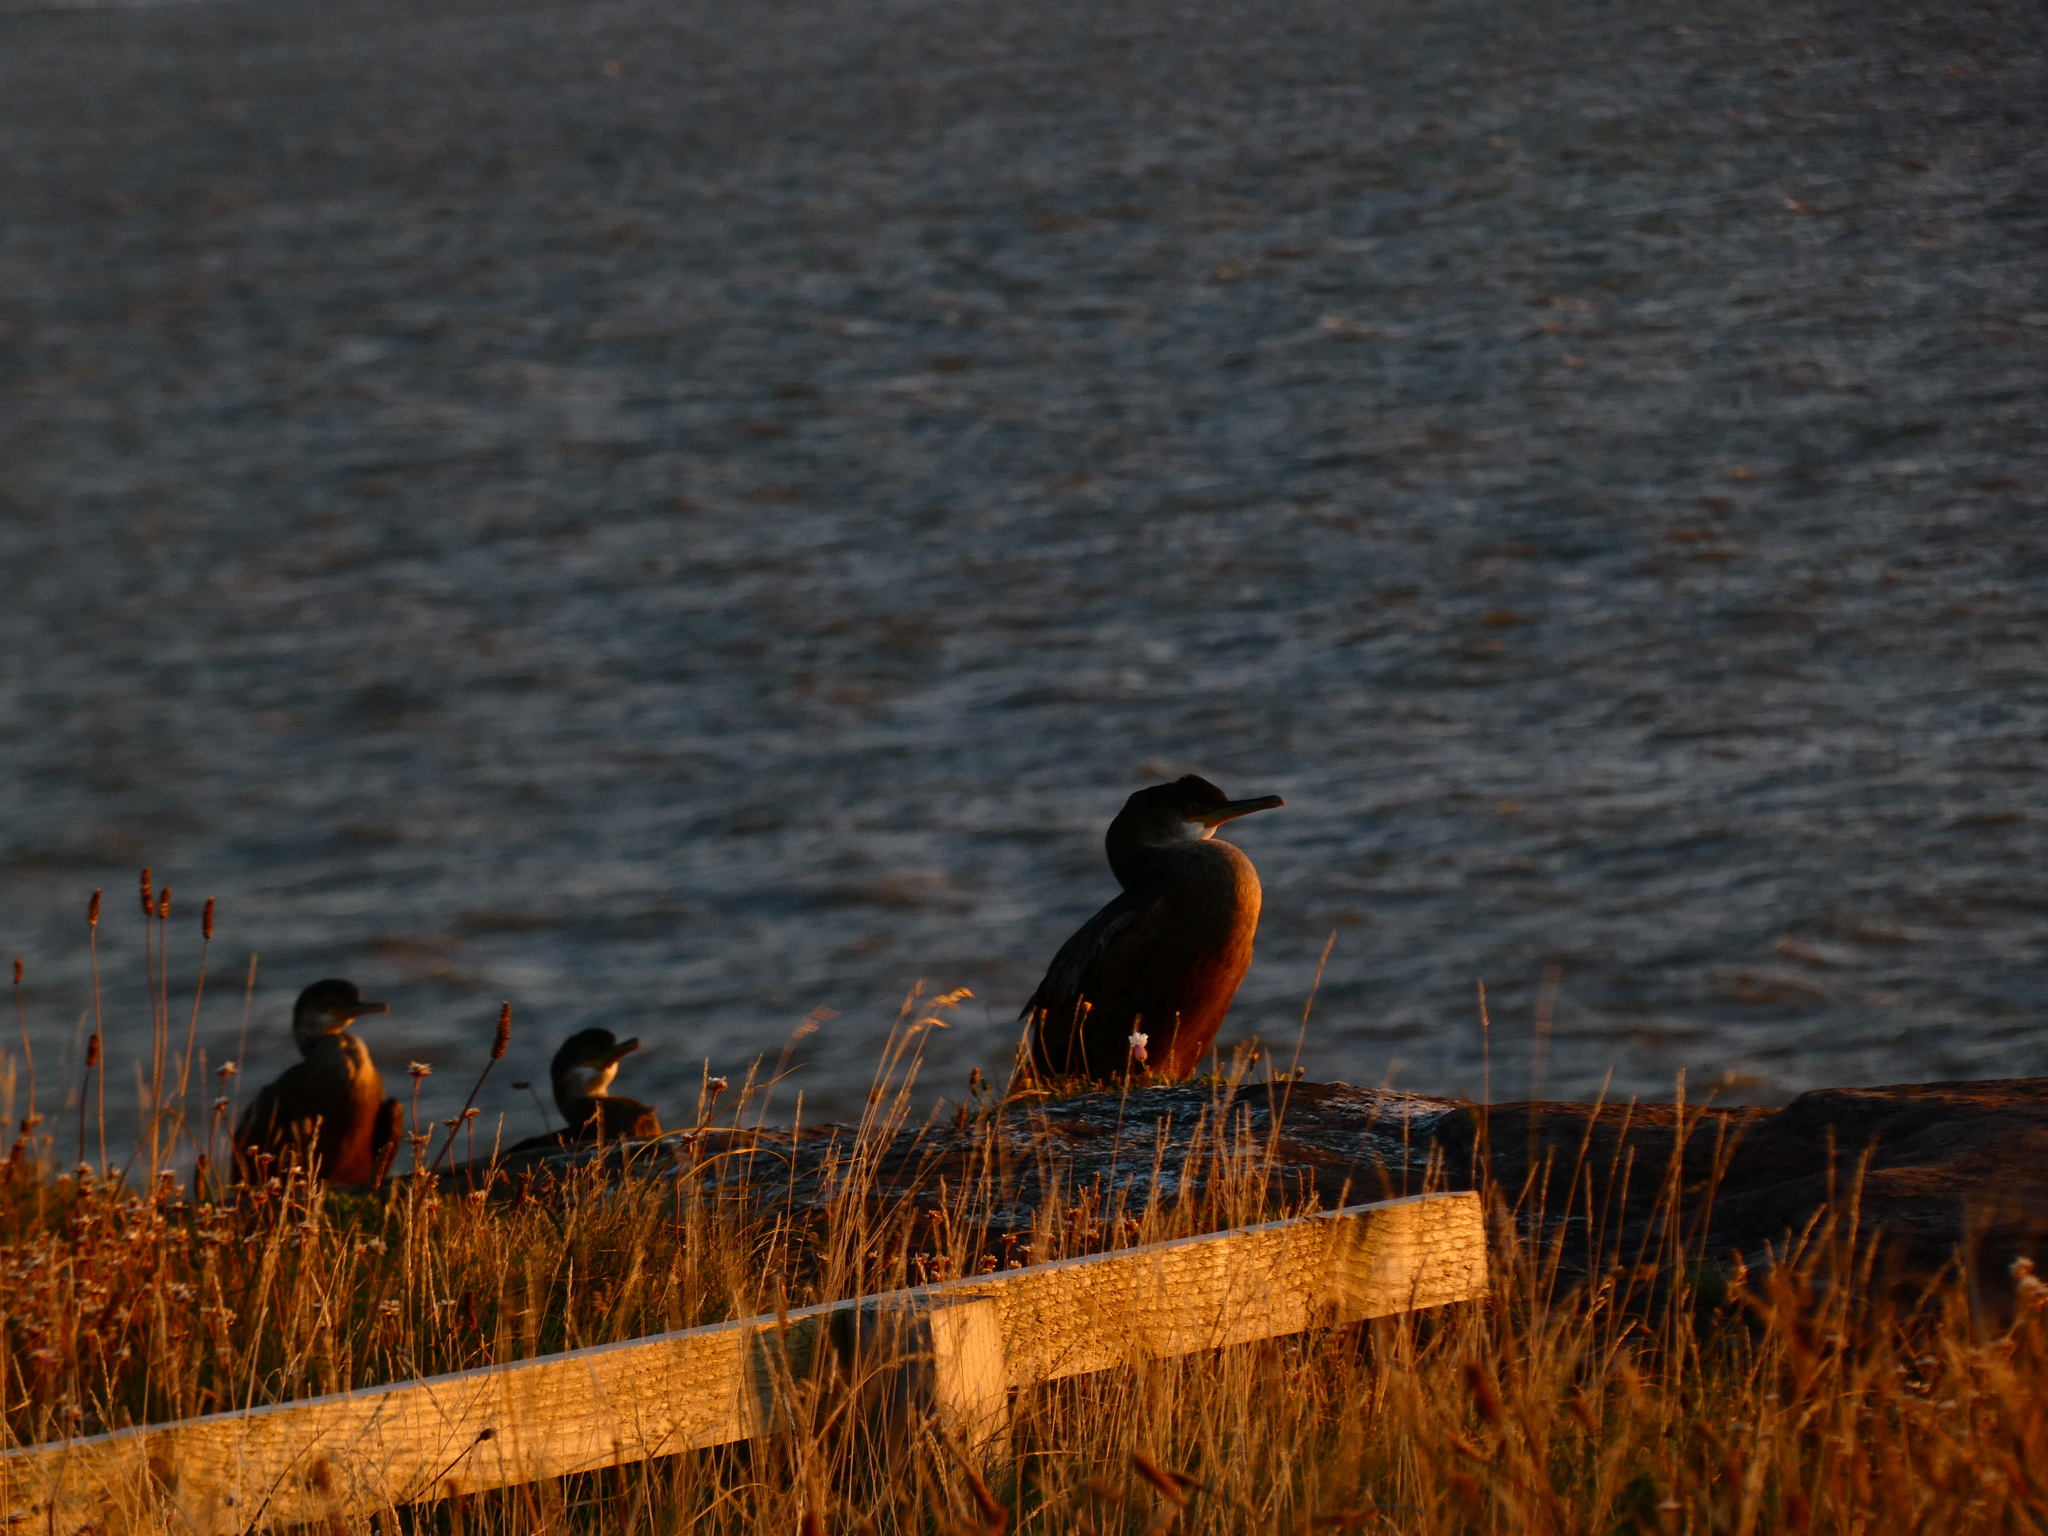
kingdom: Animalia
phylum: Chordata
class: Aves
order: Suliformes
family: Phalacrocoracidae
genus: Phalacrocorax
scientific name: Phalacrocorax aristotelis
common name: European shag
